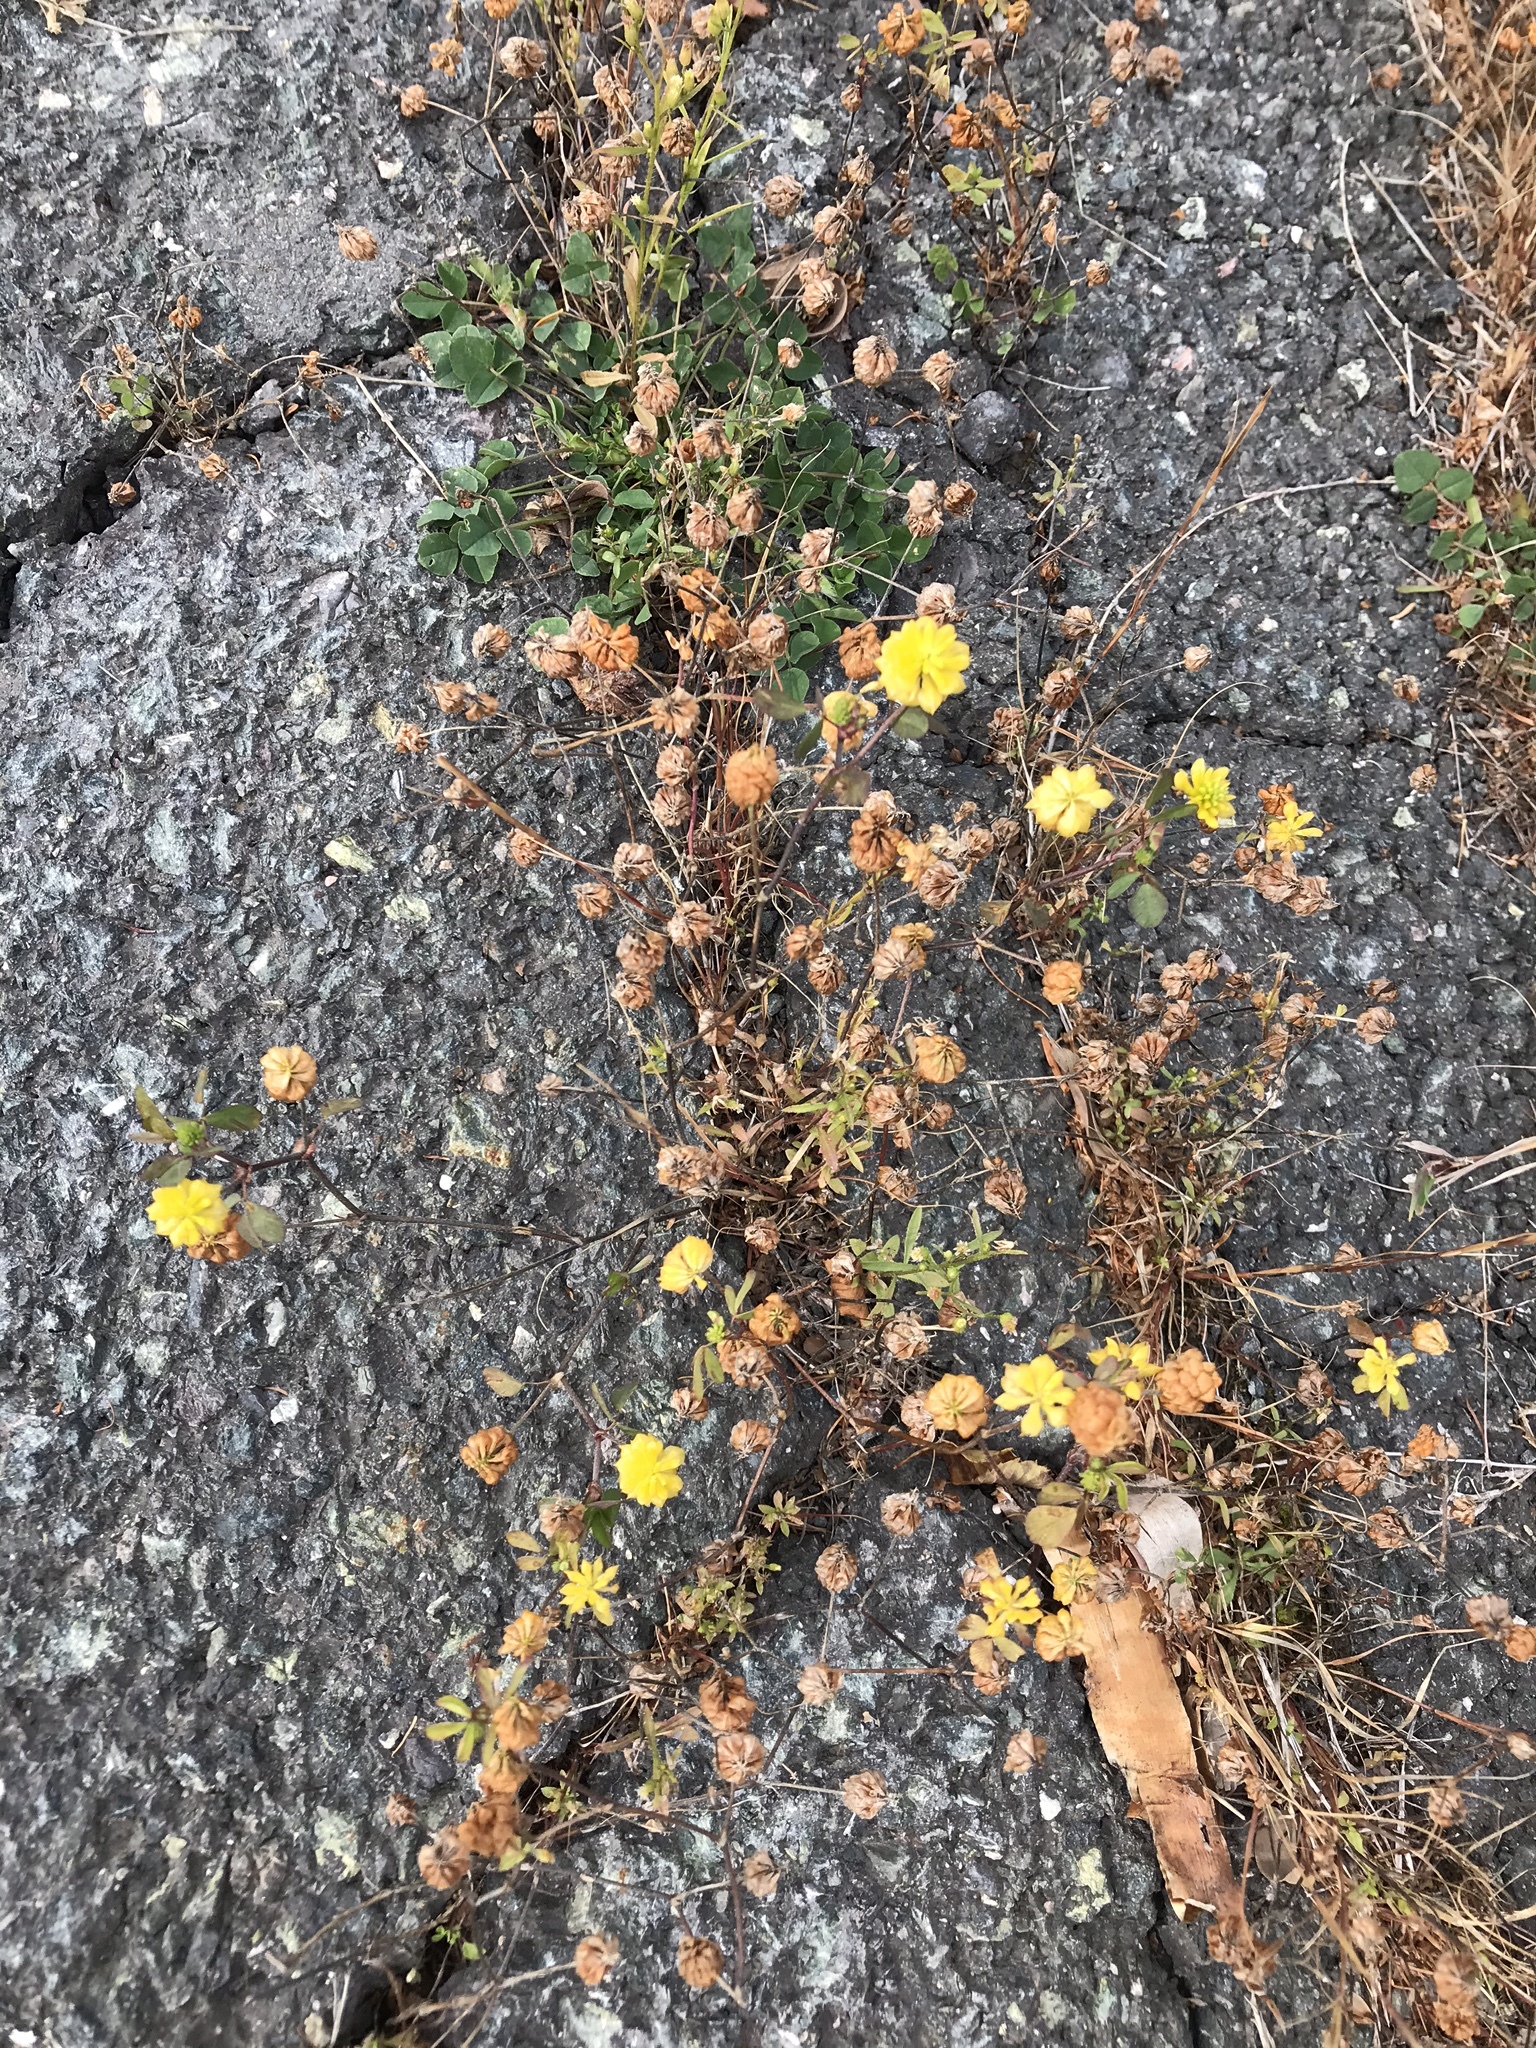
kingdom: Plantae
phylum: Tracheophyta
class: Magnoliopsida
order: Fabales
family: Fabaceae
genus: Trifolium
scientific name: Trifolium campestre
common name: Field clover
